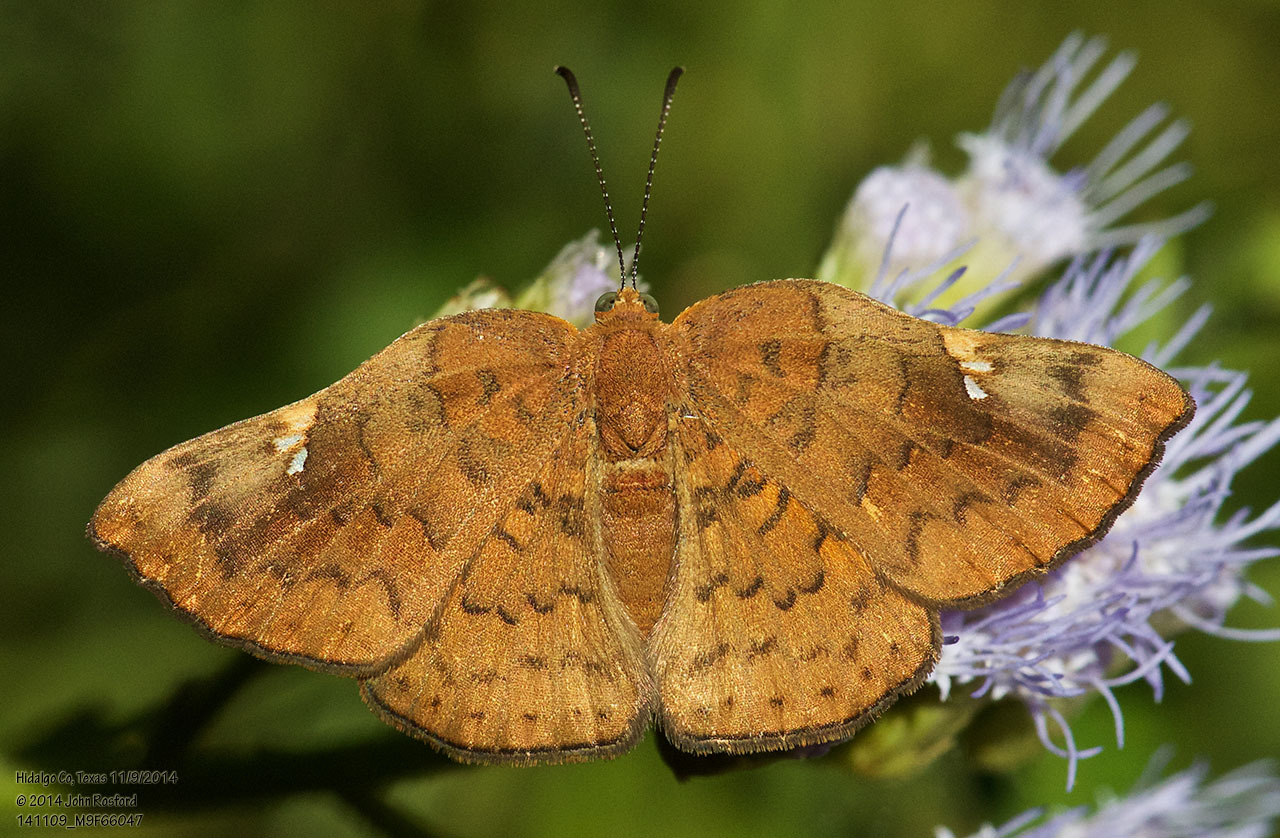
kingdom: Animalia
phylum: Arthropoda
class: Insecta
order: Lepidoptera
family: Riodinidae
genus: Curvie
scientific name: Curvie emesia
